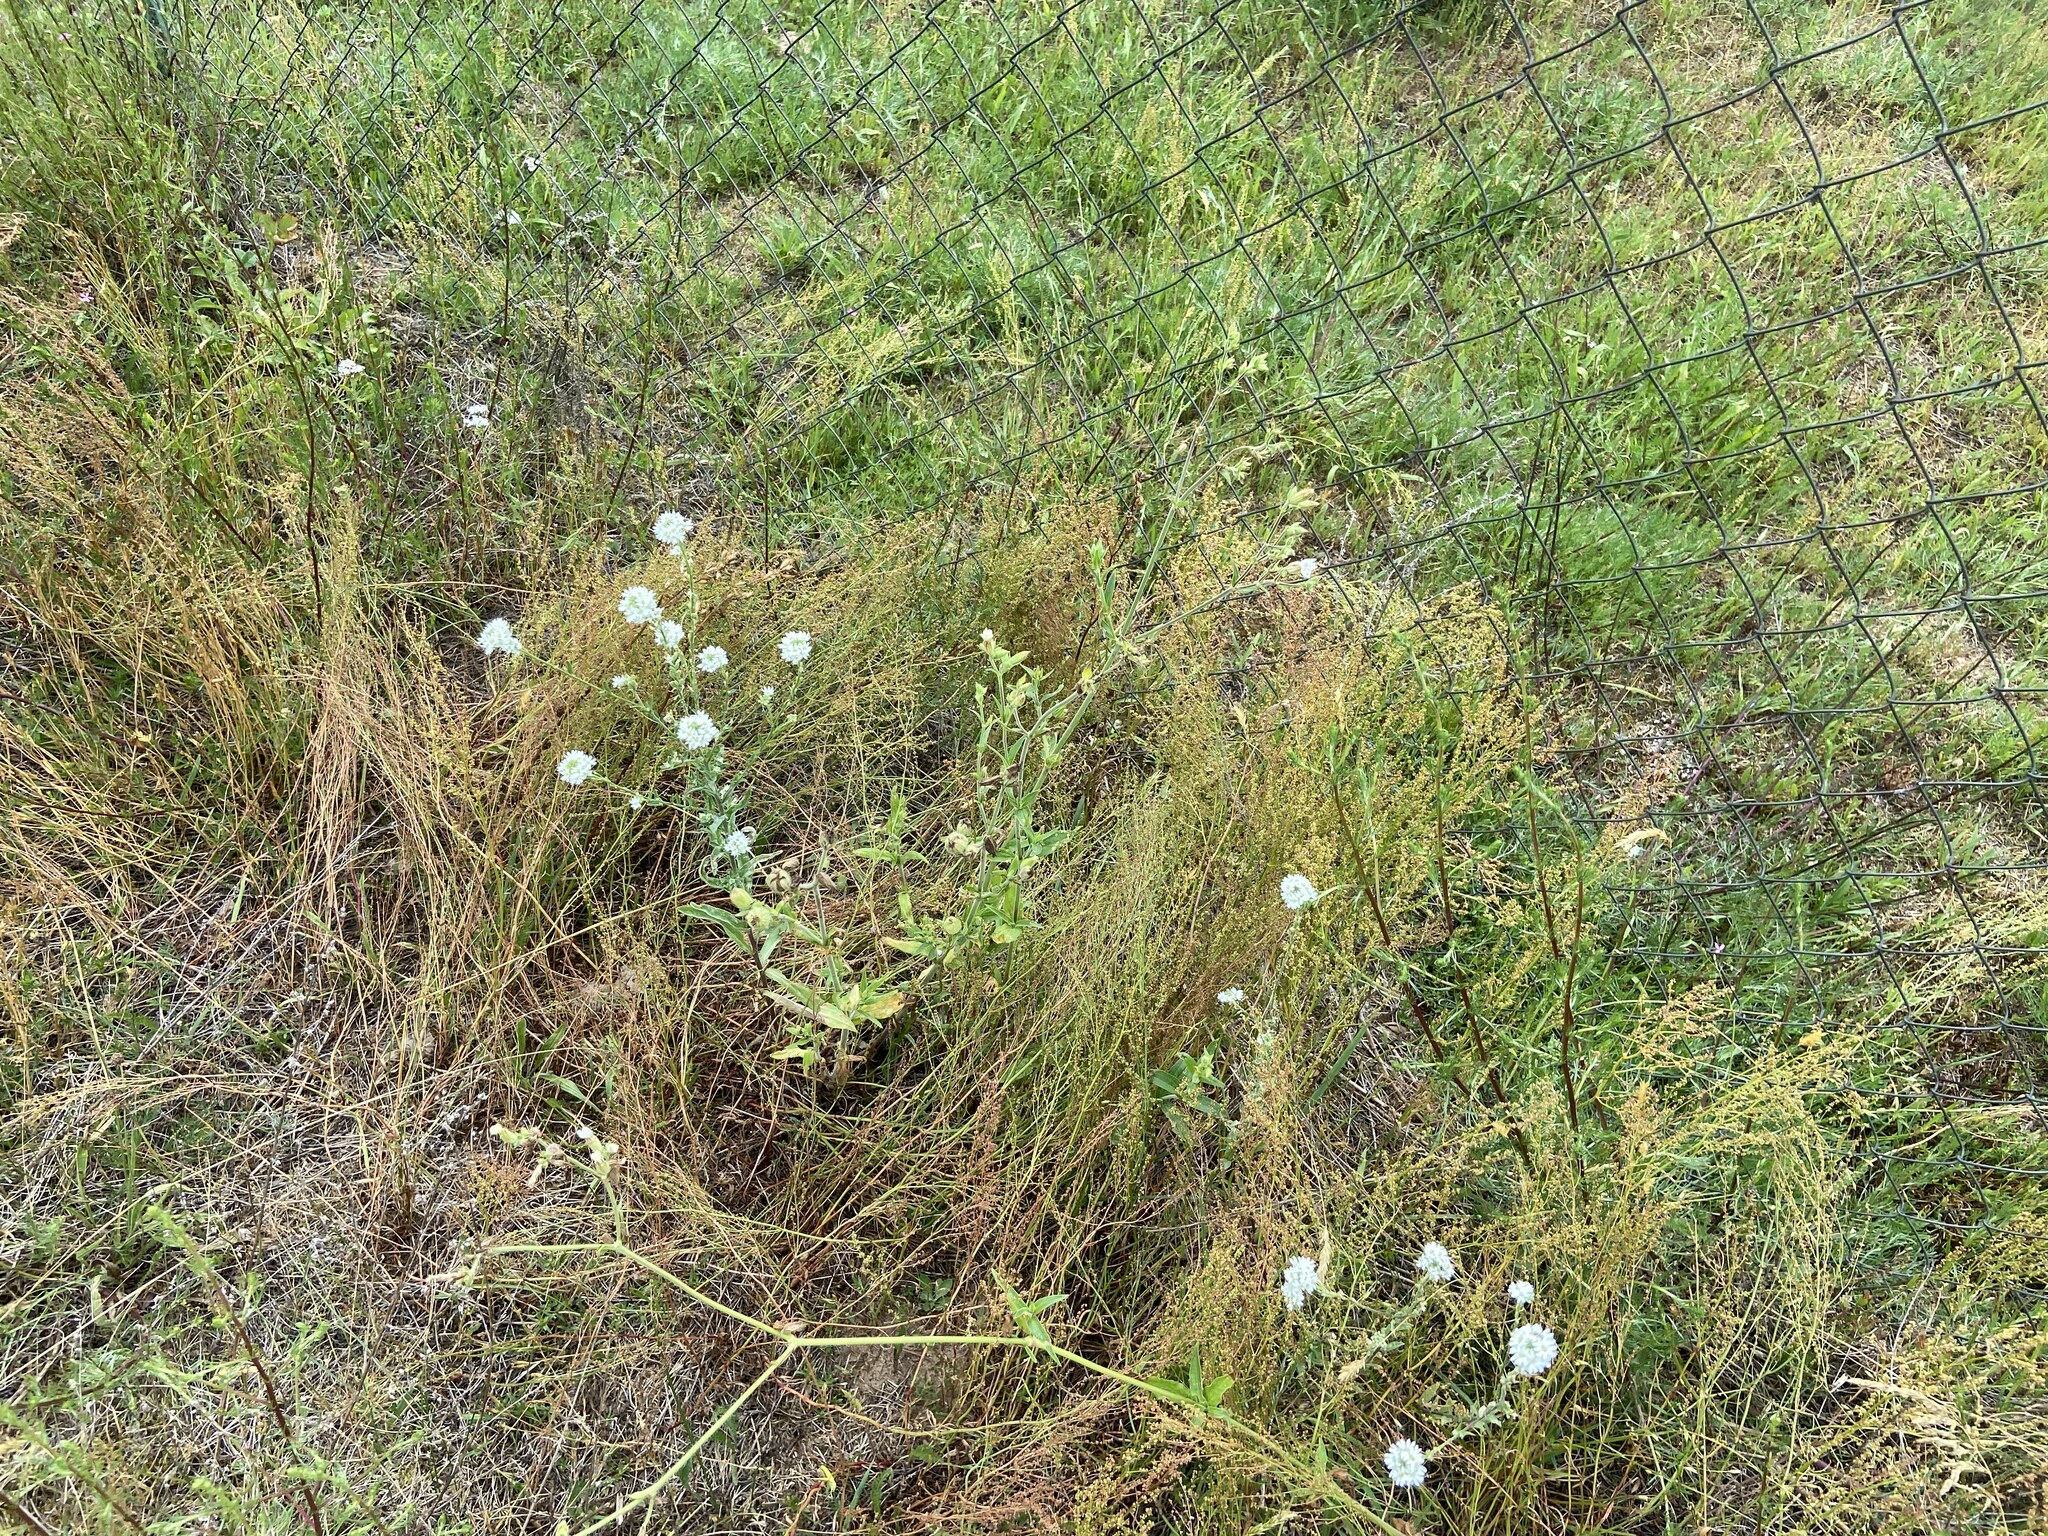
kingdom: Plantae
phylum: Tracheophyta
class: Magnoliopsida
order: Brassicales
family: Brassicaceae
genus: Berteroa
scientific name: Berteroa incana
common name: Hoary alison
